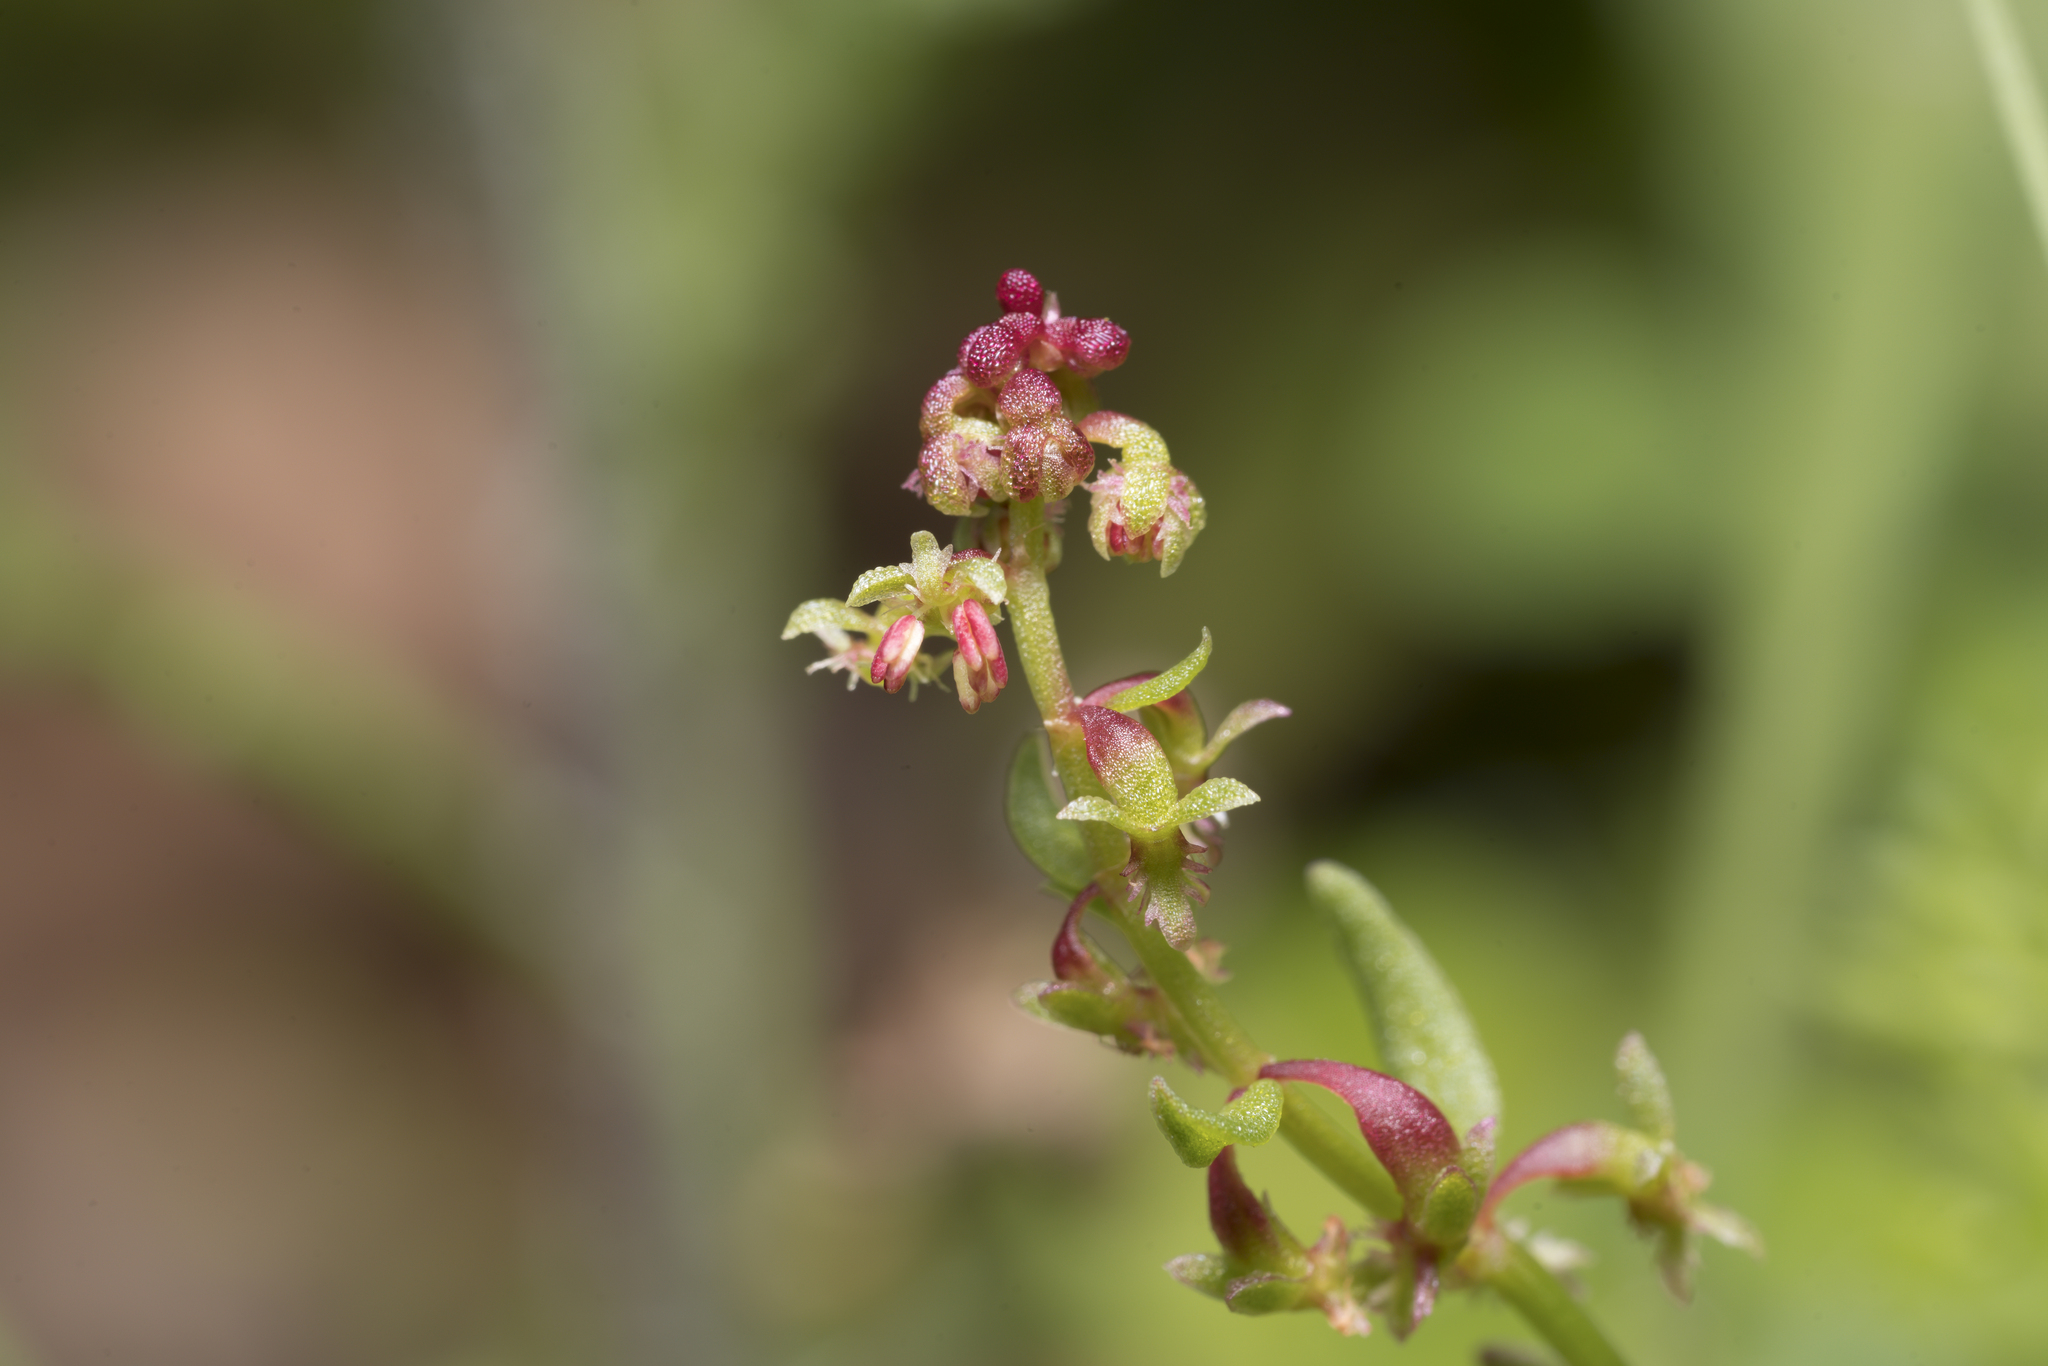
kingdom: Plantae
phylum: Tracheophyta
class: Magnoliopsida
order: Caryophyllales
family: Polygonaceae
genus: Rumex
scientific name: Rumex bucephalophorus
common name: Red dock
